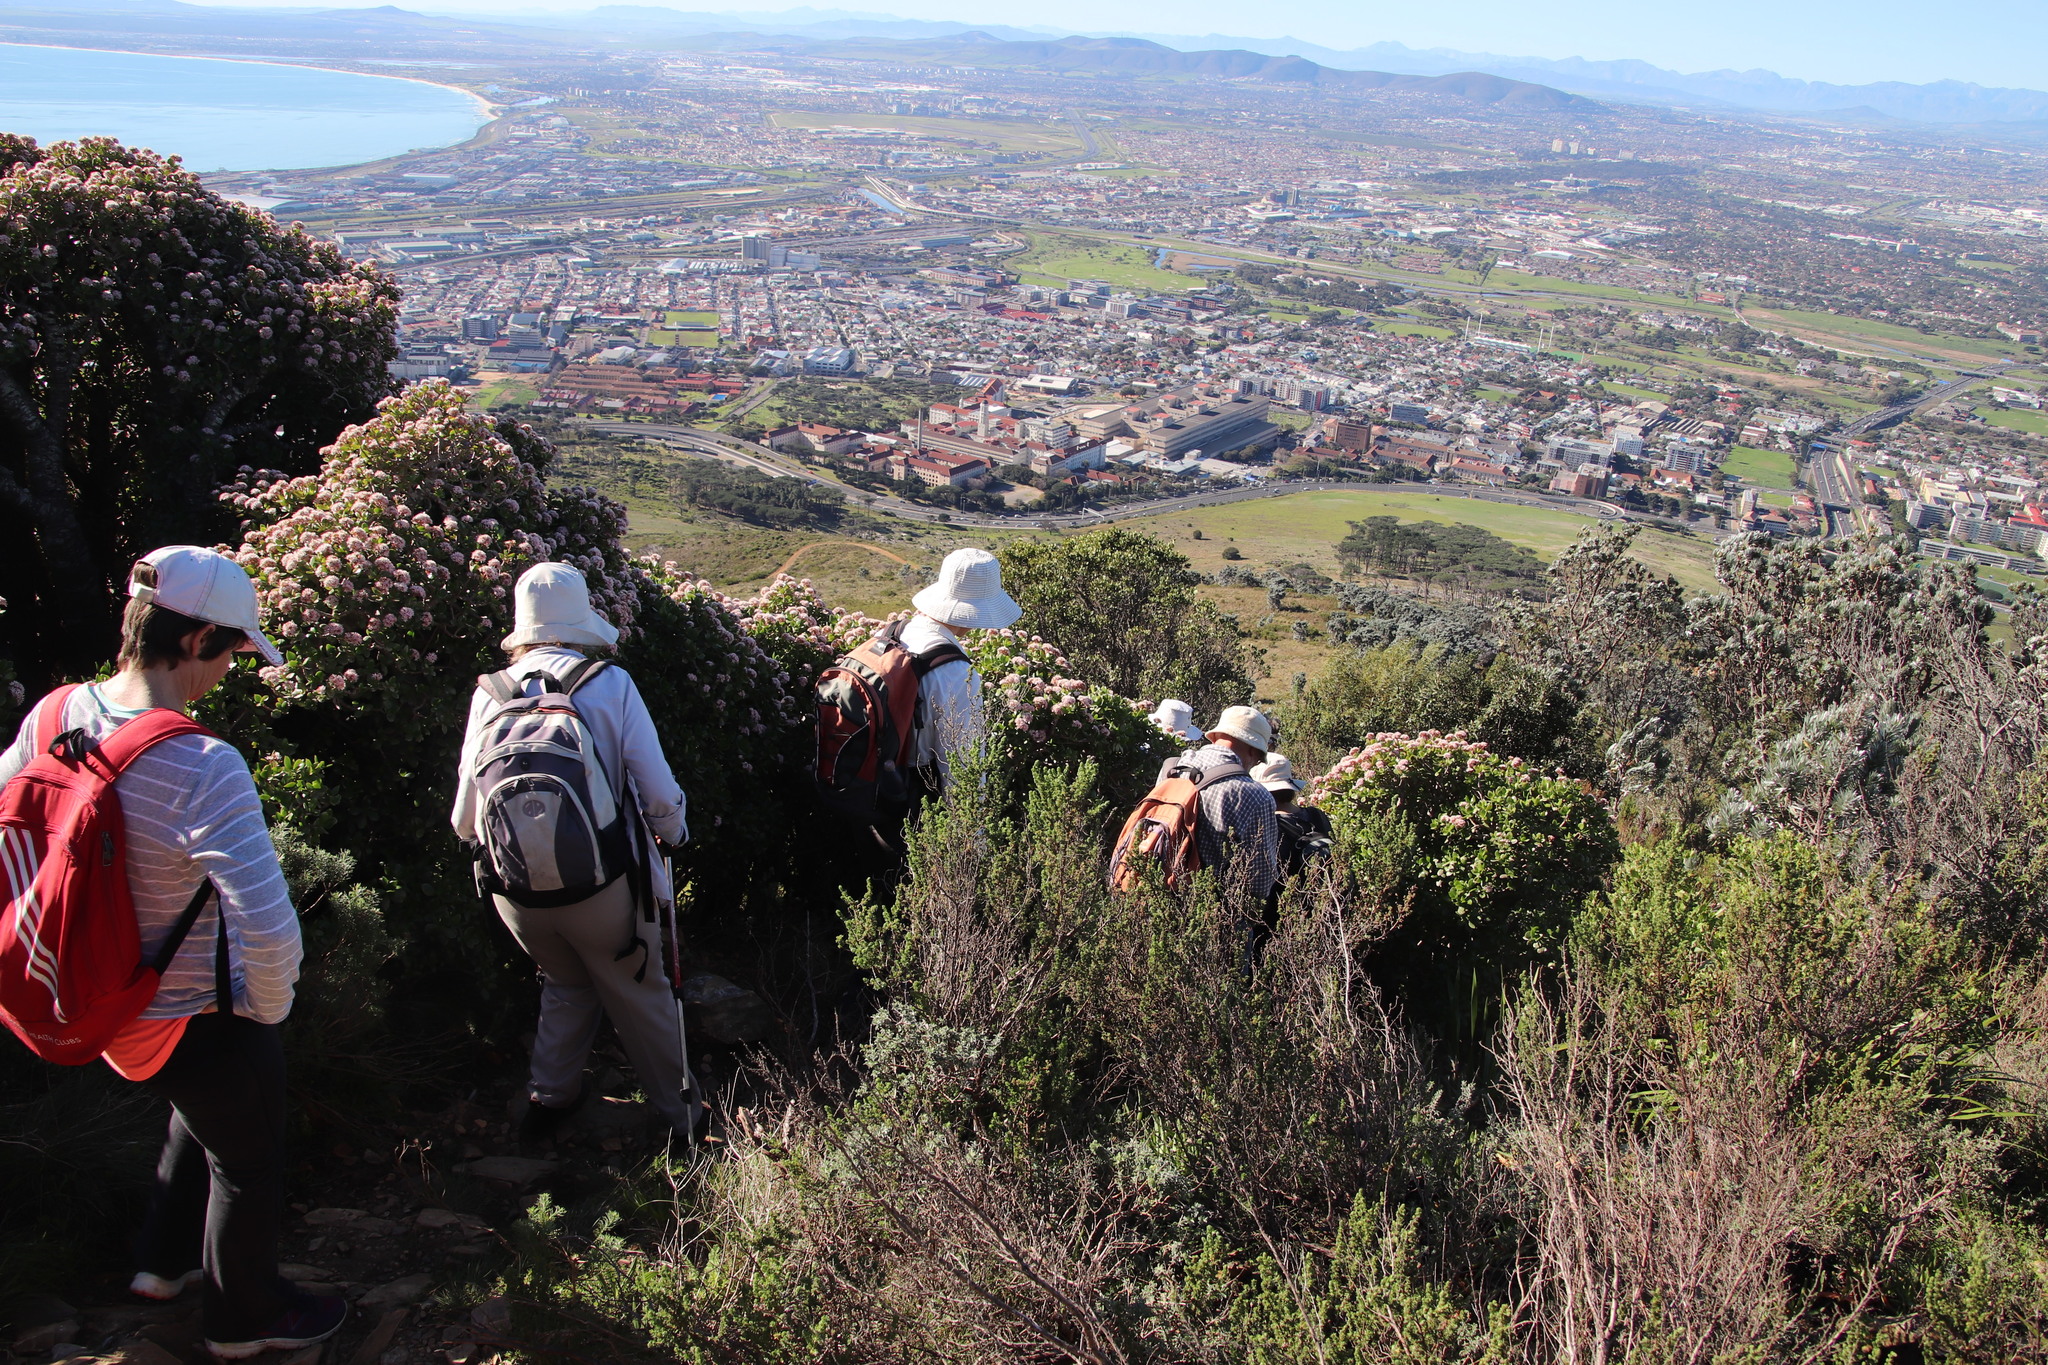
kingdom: Plantae
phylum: Tracheophyta
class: Magnoliopsida
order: Saxifragales
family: Crassulaceae
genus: Crassula
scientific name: Crassula ovata
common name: Jade plant
